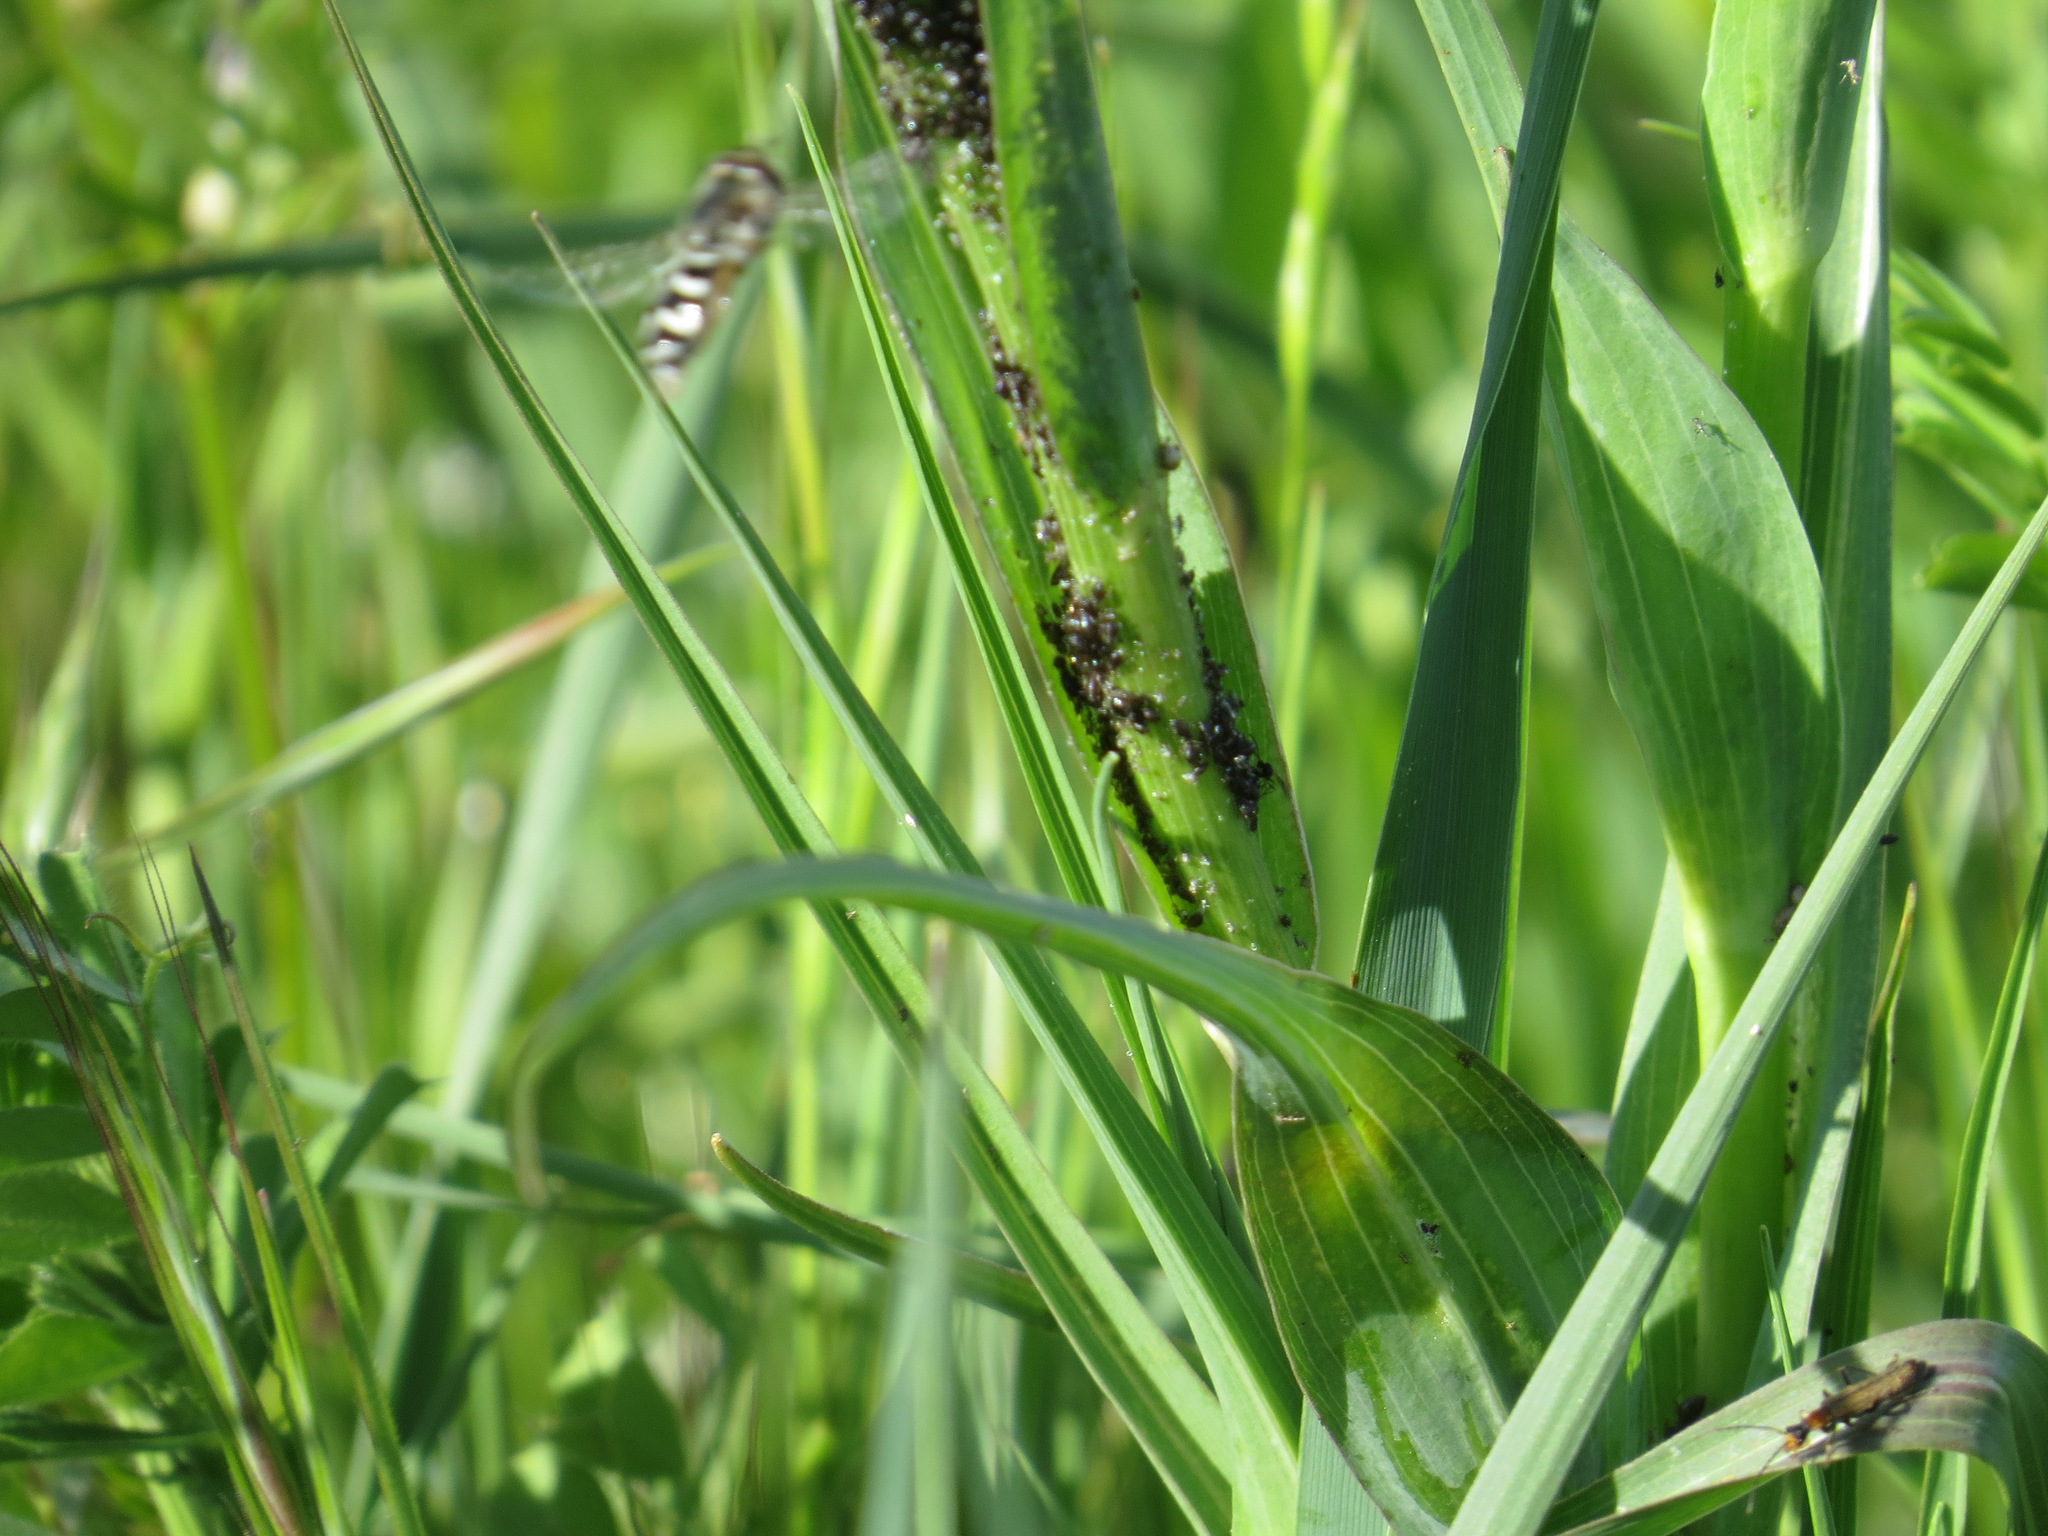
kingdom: Animalia
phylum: Arthropoda
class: Insecta
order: Diptera
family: Syrphidae
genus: Scaeva
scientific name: Scaeva affinis
